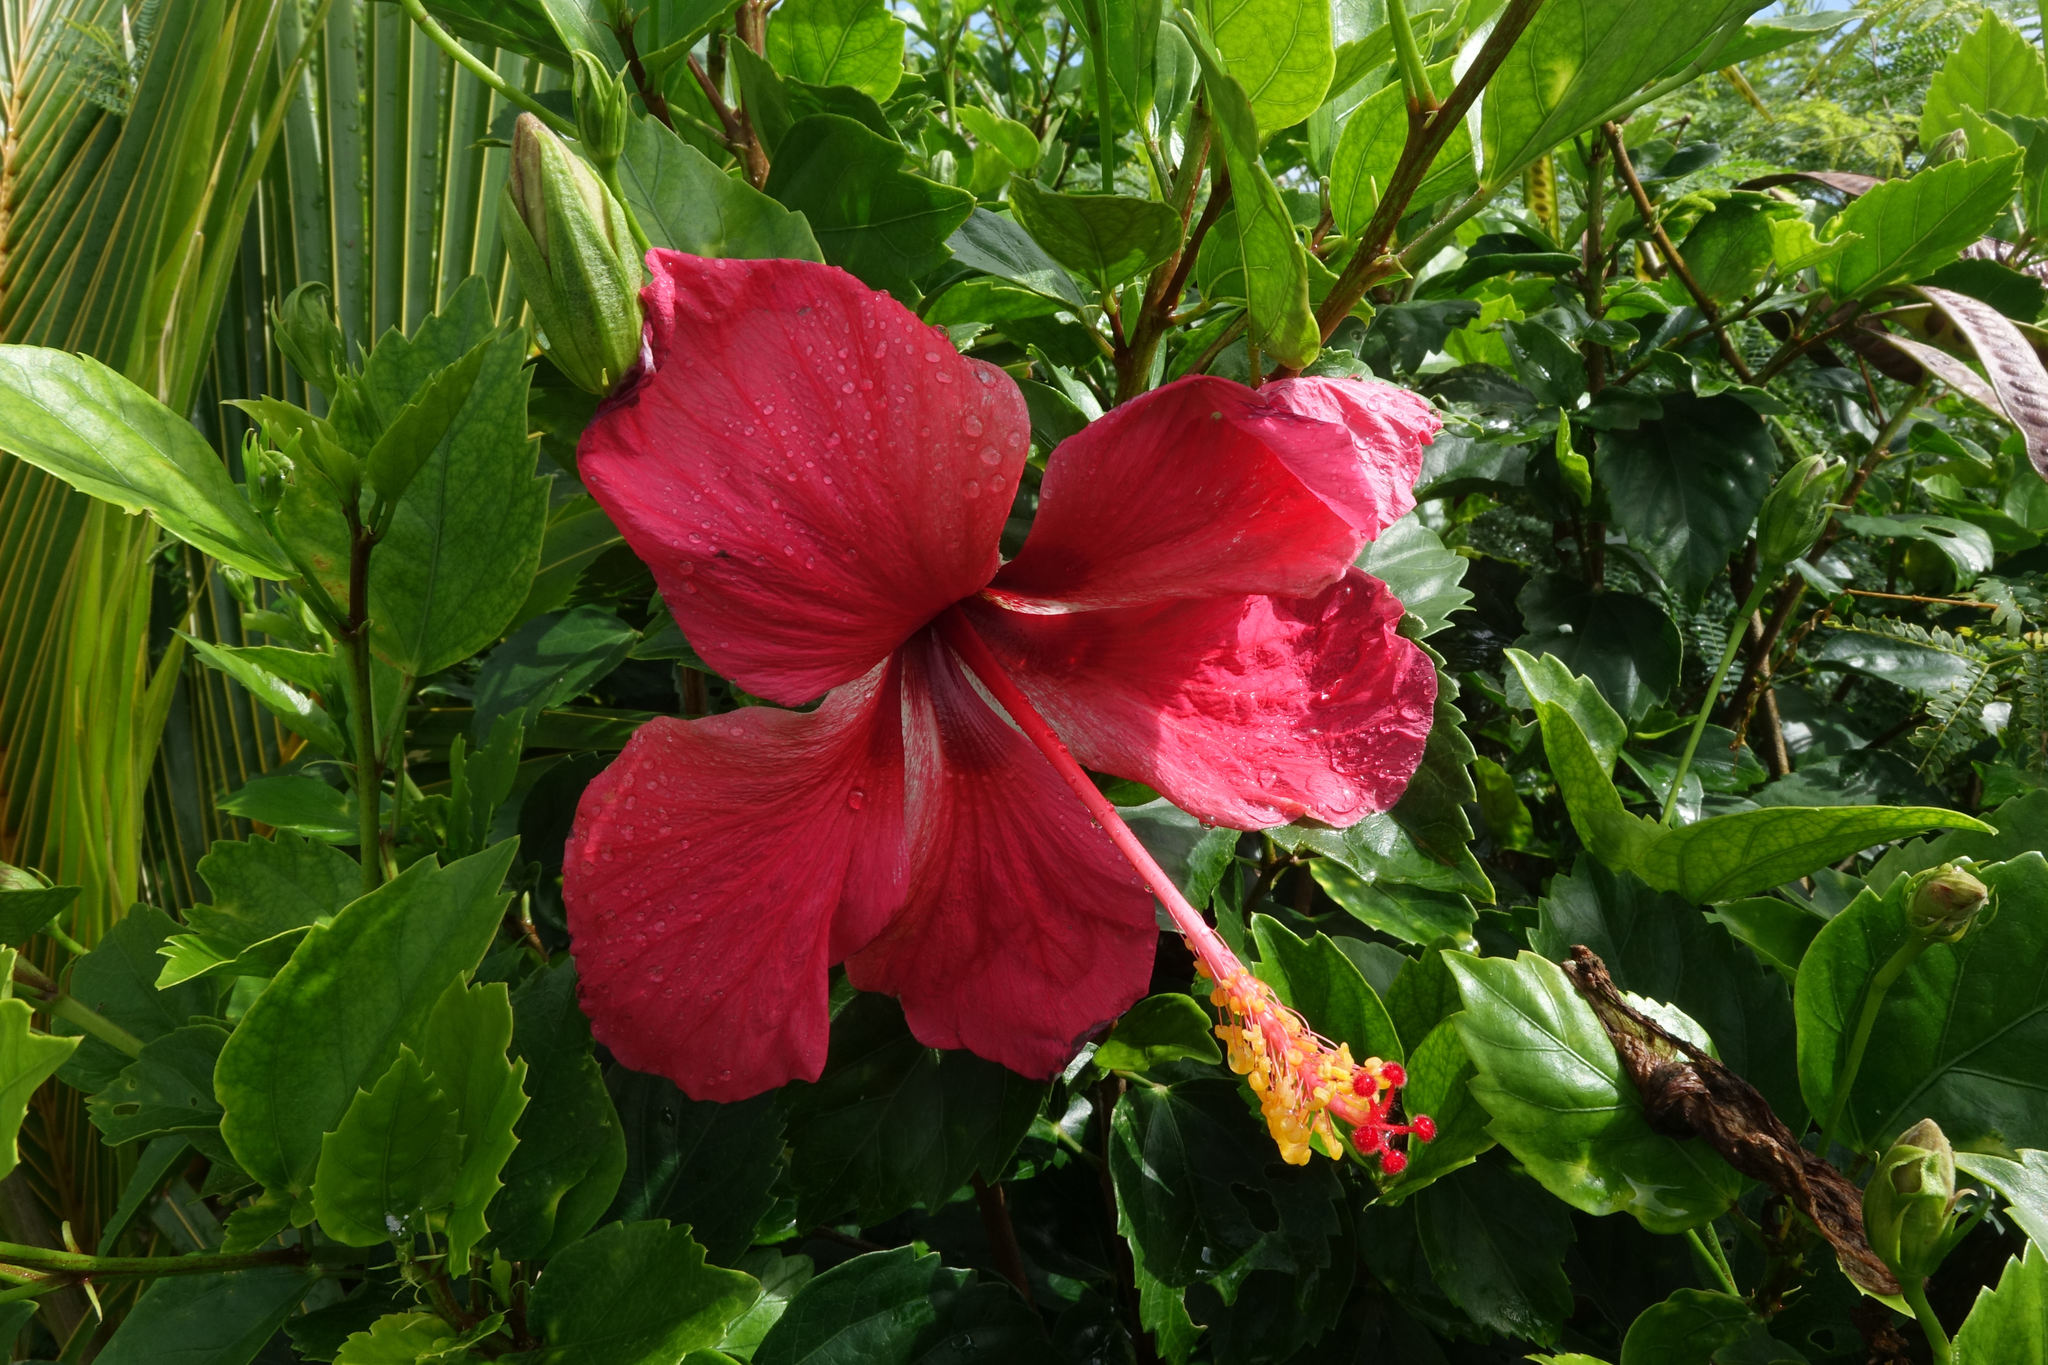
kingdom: Plantae
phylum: Tracheophyta
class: Magnoliopsida
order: Malvales
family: Malvaceae
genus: Hibiscus
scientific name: Hibiscus rosa-sinensis
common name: Hibiscus
